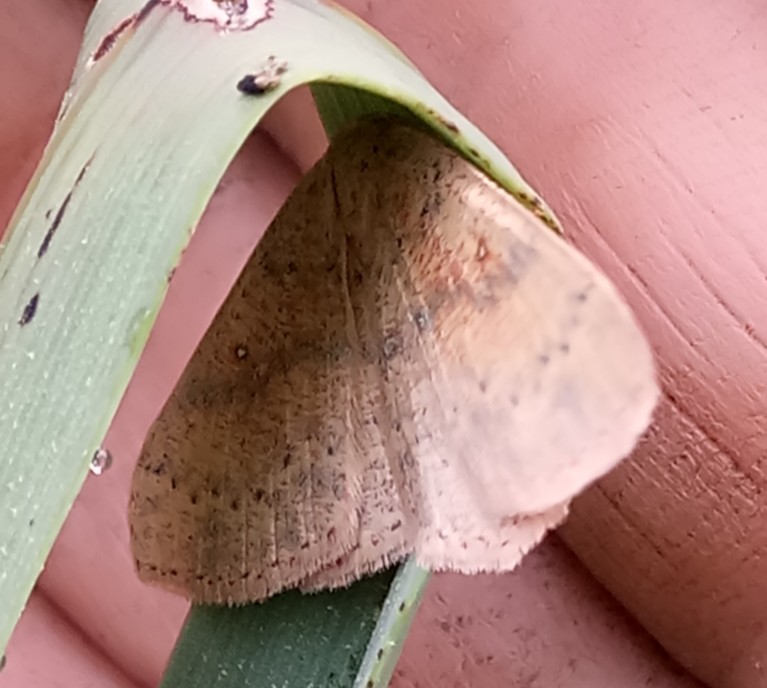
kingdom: Animalia
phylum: Arthropoda
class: Insecta
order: Lepidoptera
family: Geometridae
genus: Cyclophora
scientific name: Cyclophora puppillaria
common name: Blair's mocha
